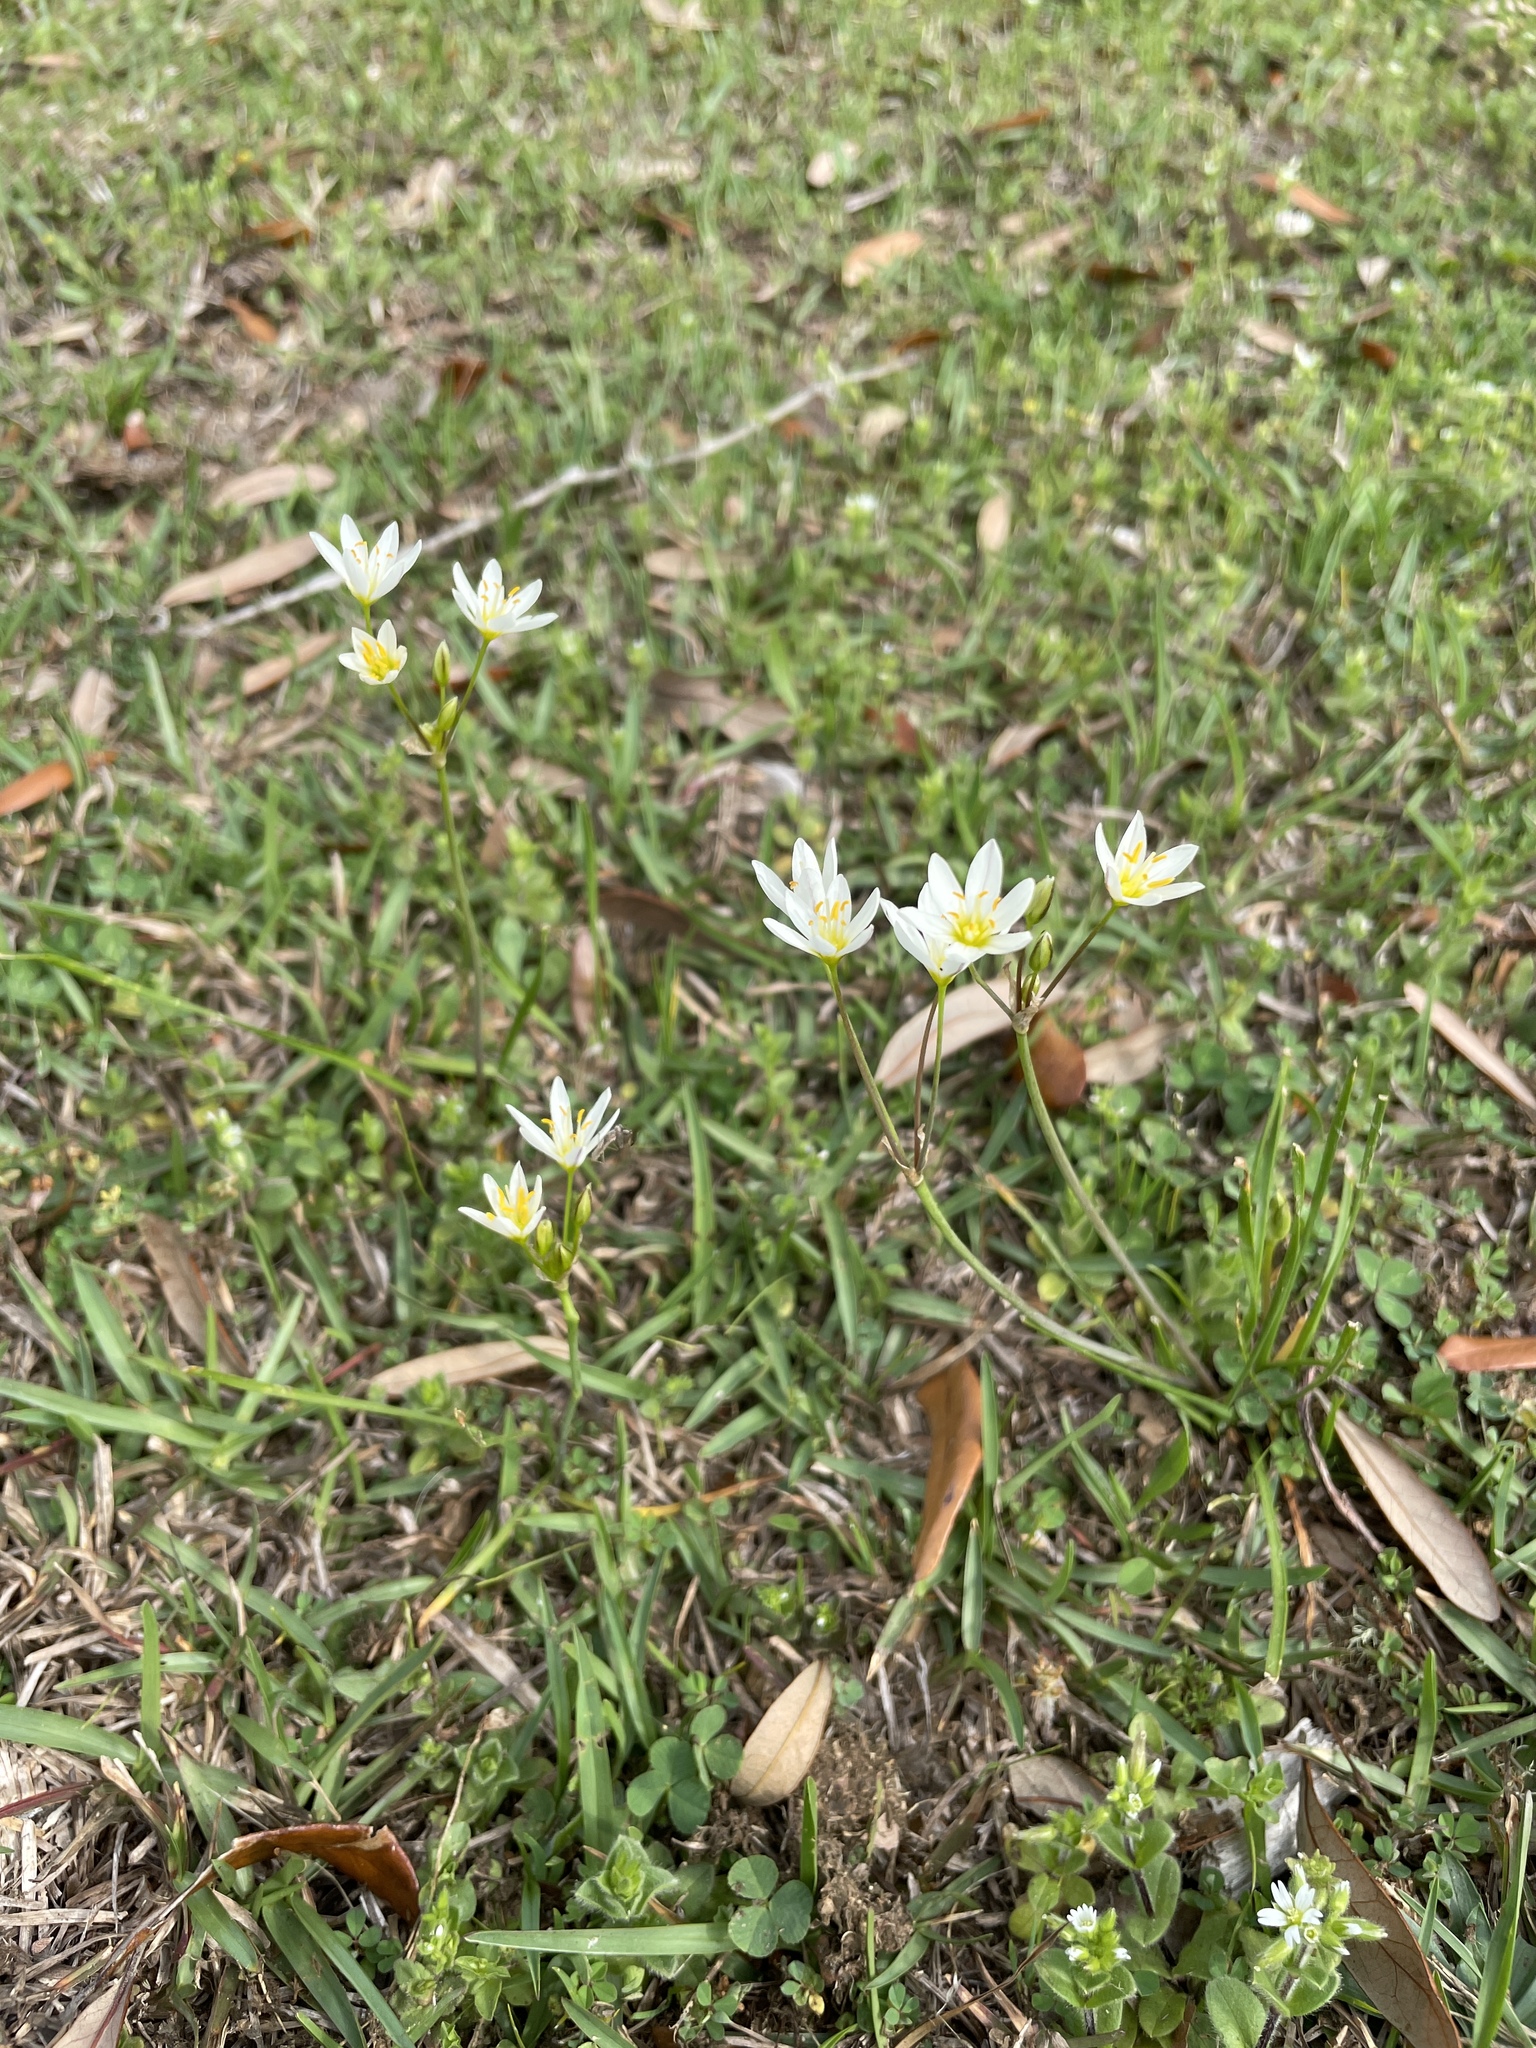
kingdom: Plantae
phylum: Tracheophyta
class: Liliopsida
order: Asparagales
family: Amaryllidaceae
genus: Nothoscordum
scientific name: Nothoscordum bivalve
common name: Crow-poison
